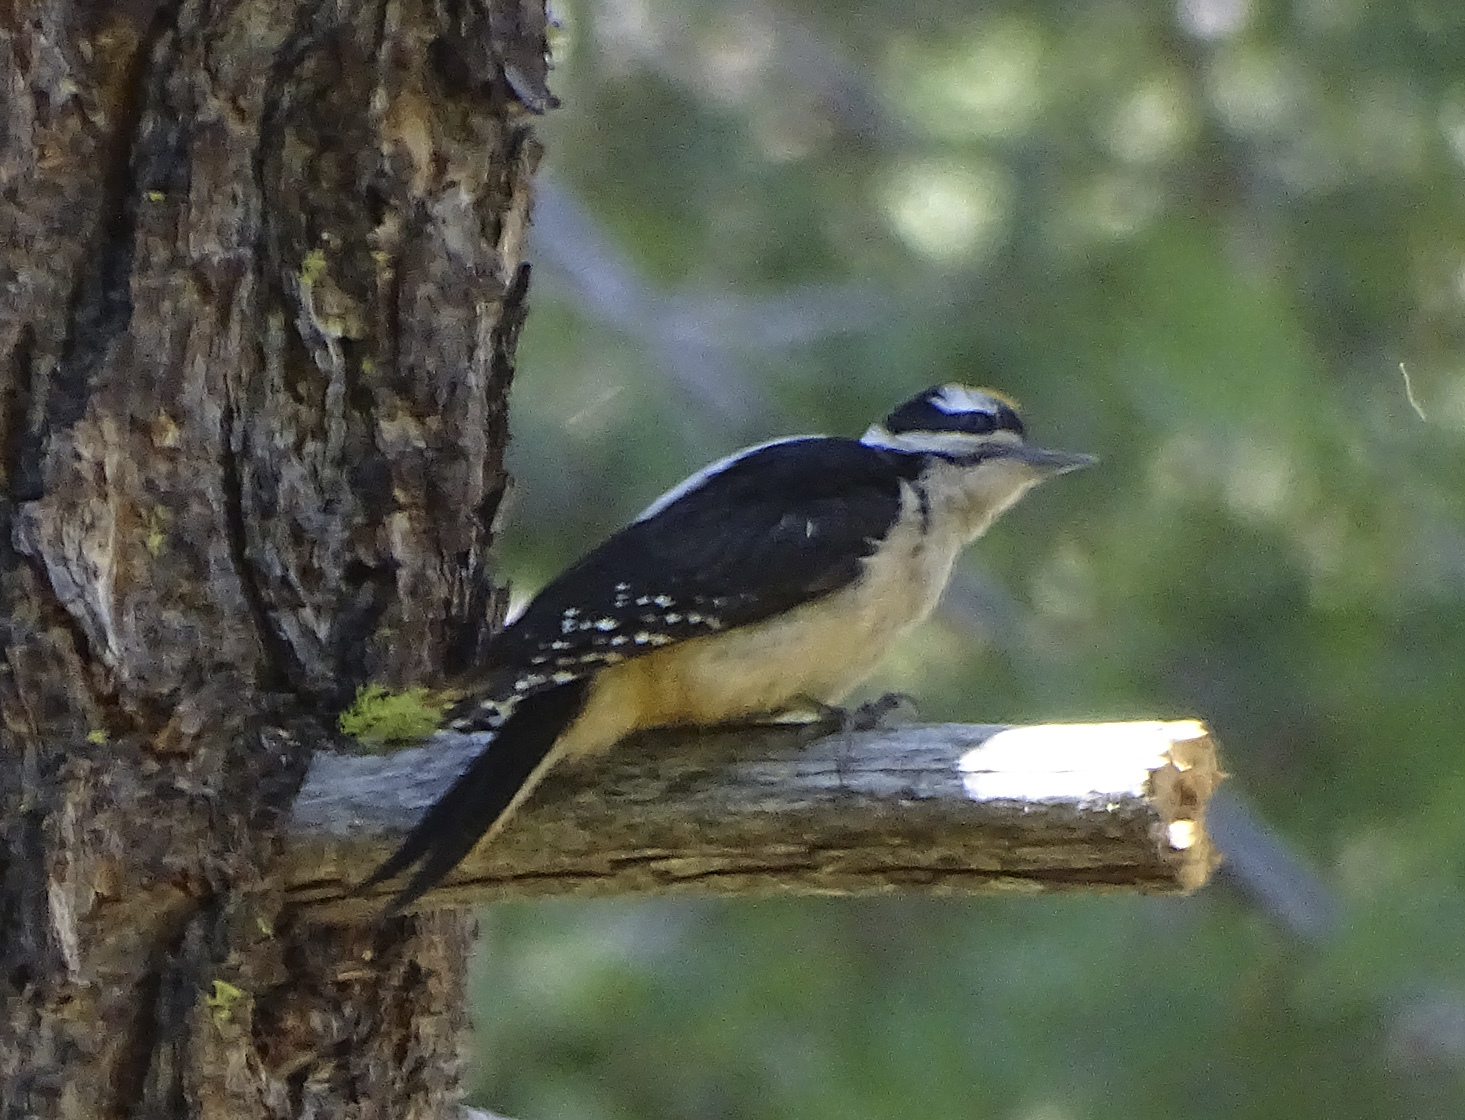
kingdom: Animalia
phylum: Chordata
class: Aves
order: Piciformes
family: Picidae
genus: Leuconotopicus
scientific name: Leuconotopicus villosus
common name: Hairy woodpecker
